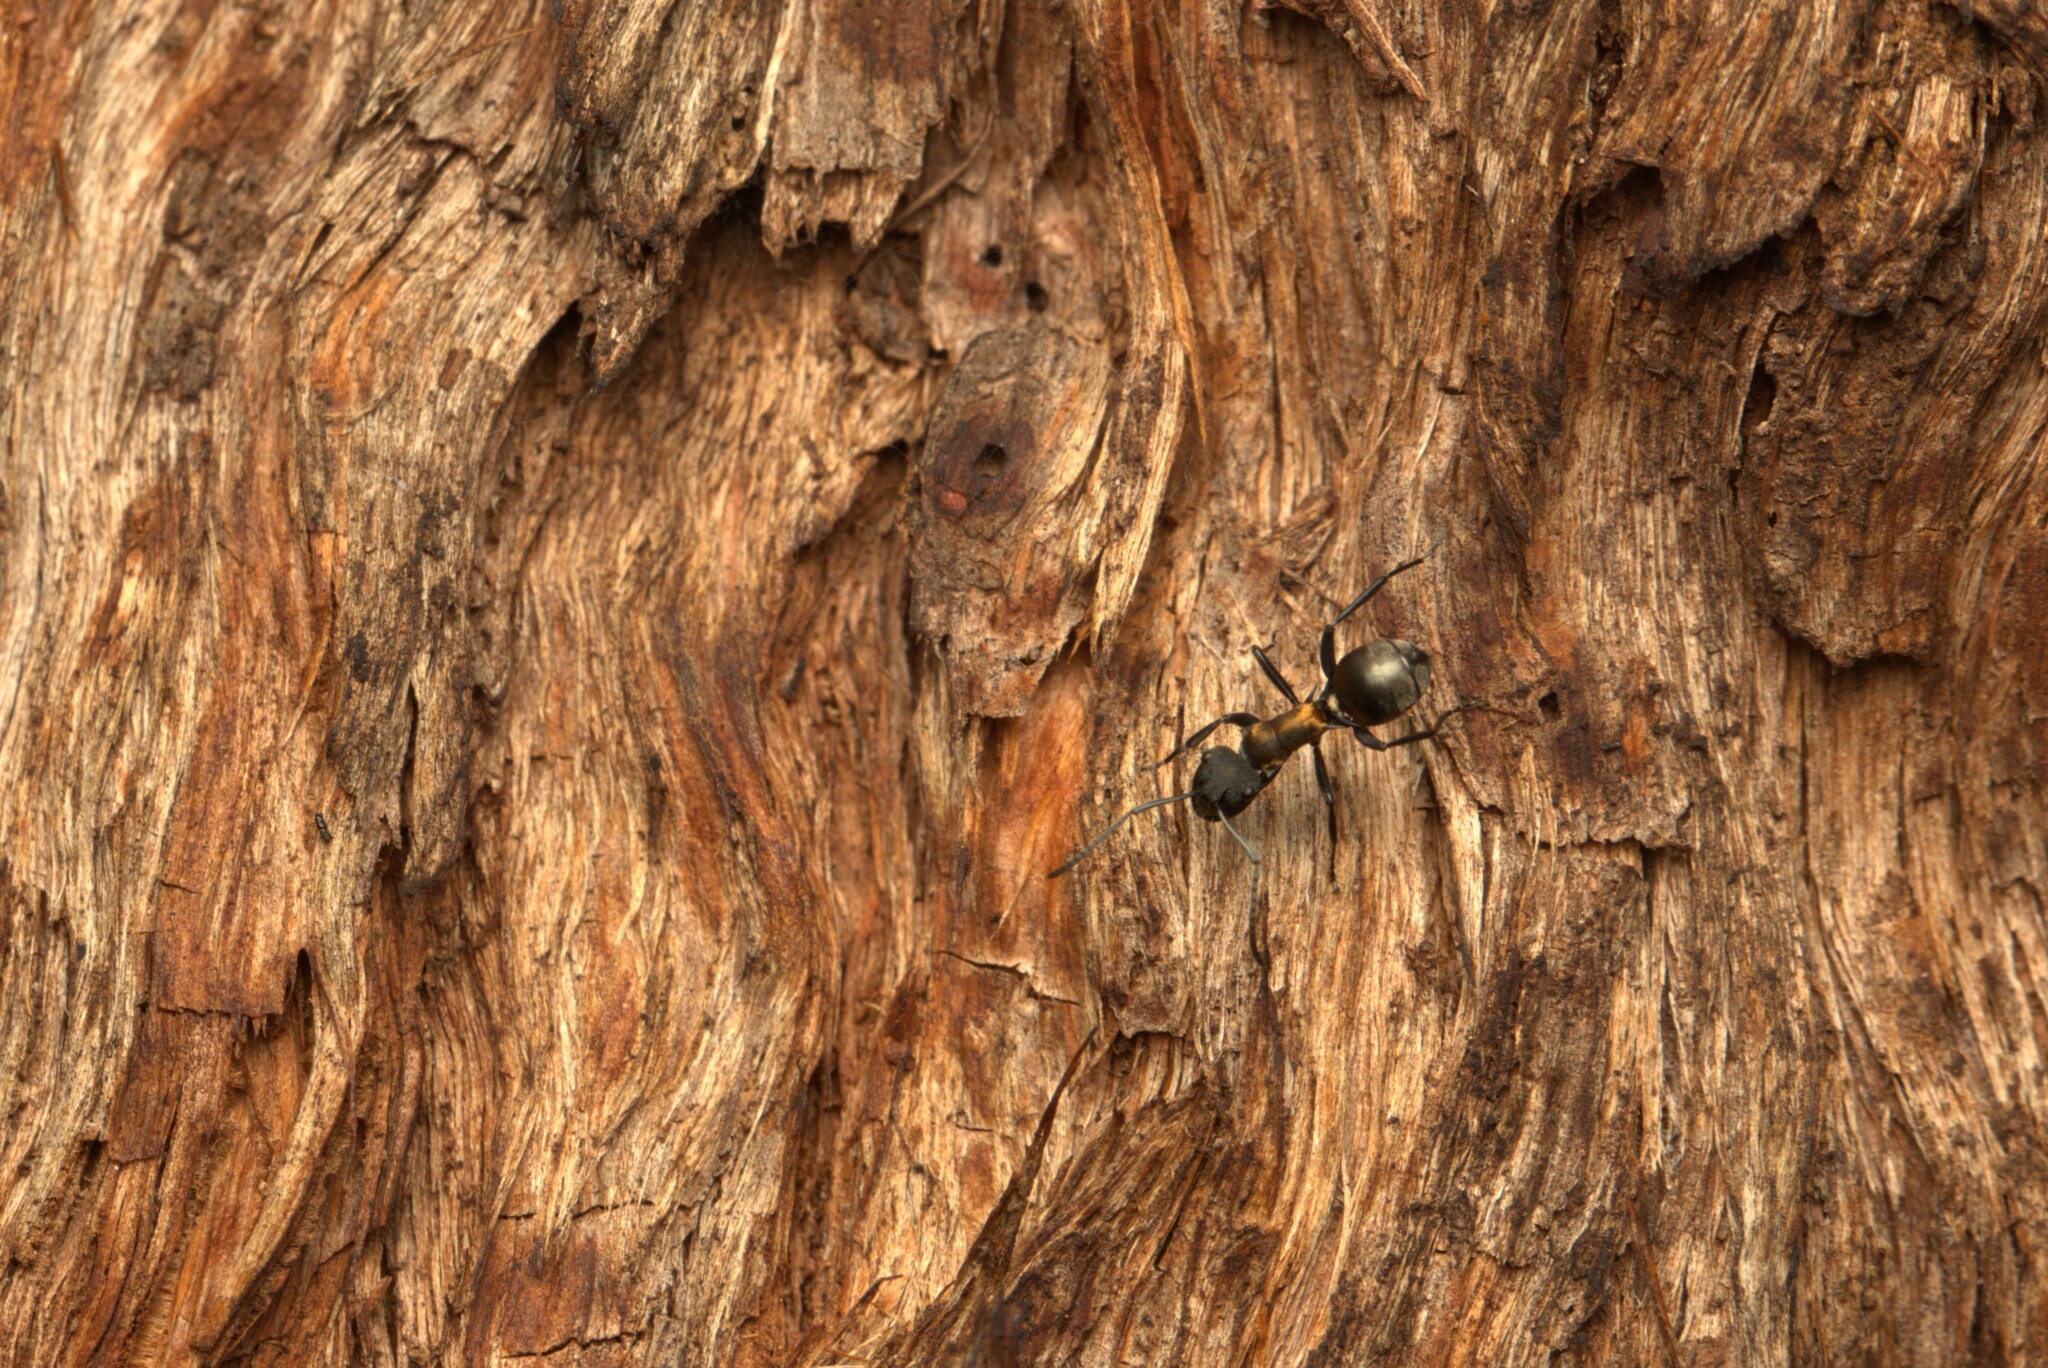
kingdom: Animalia
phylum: Arthropoda
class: Insecta
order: Hymenoptera
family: Formicidae
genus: Polyrhachis
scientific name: Polyrhachis ornata
